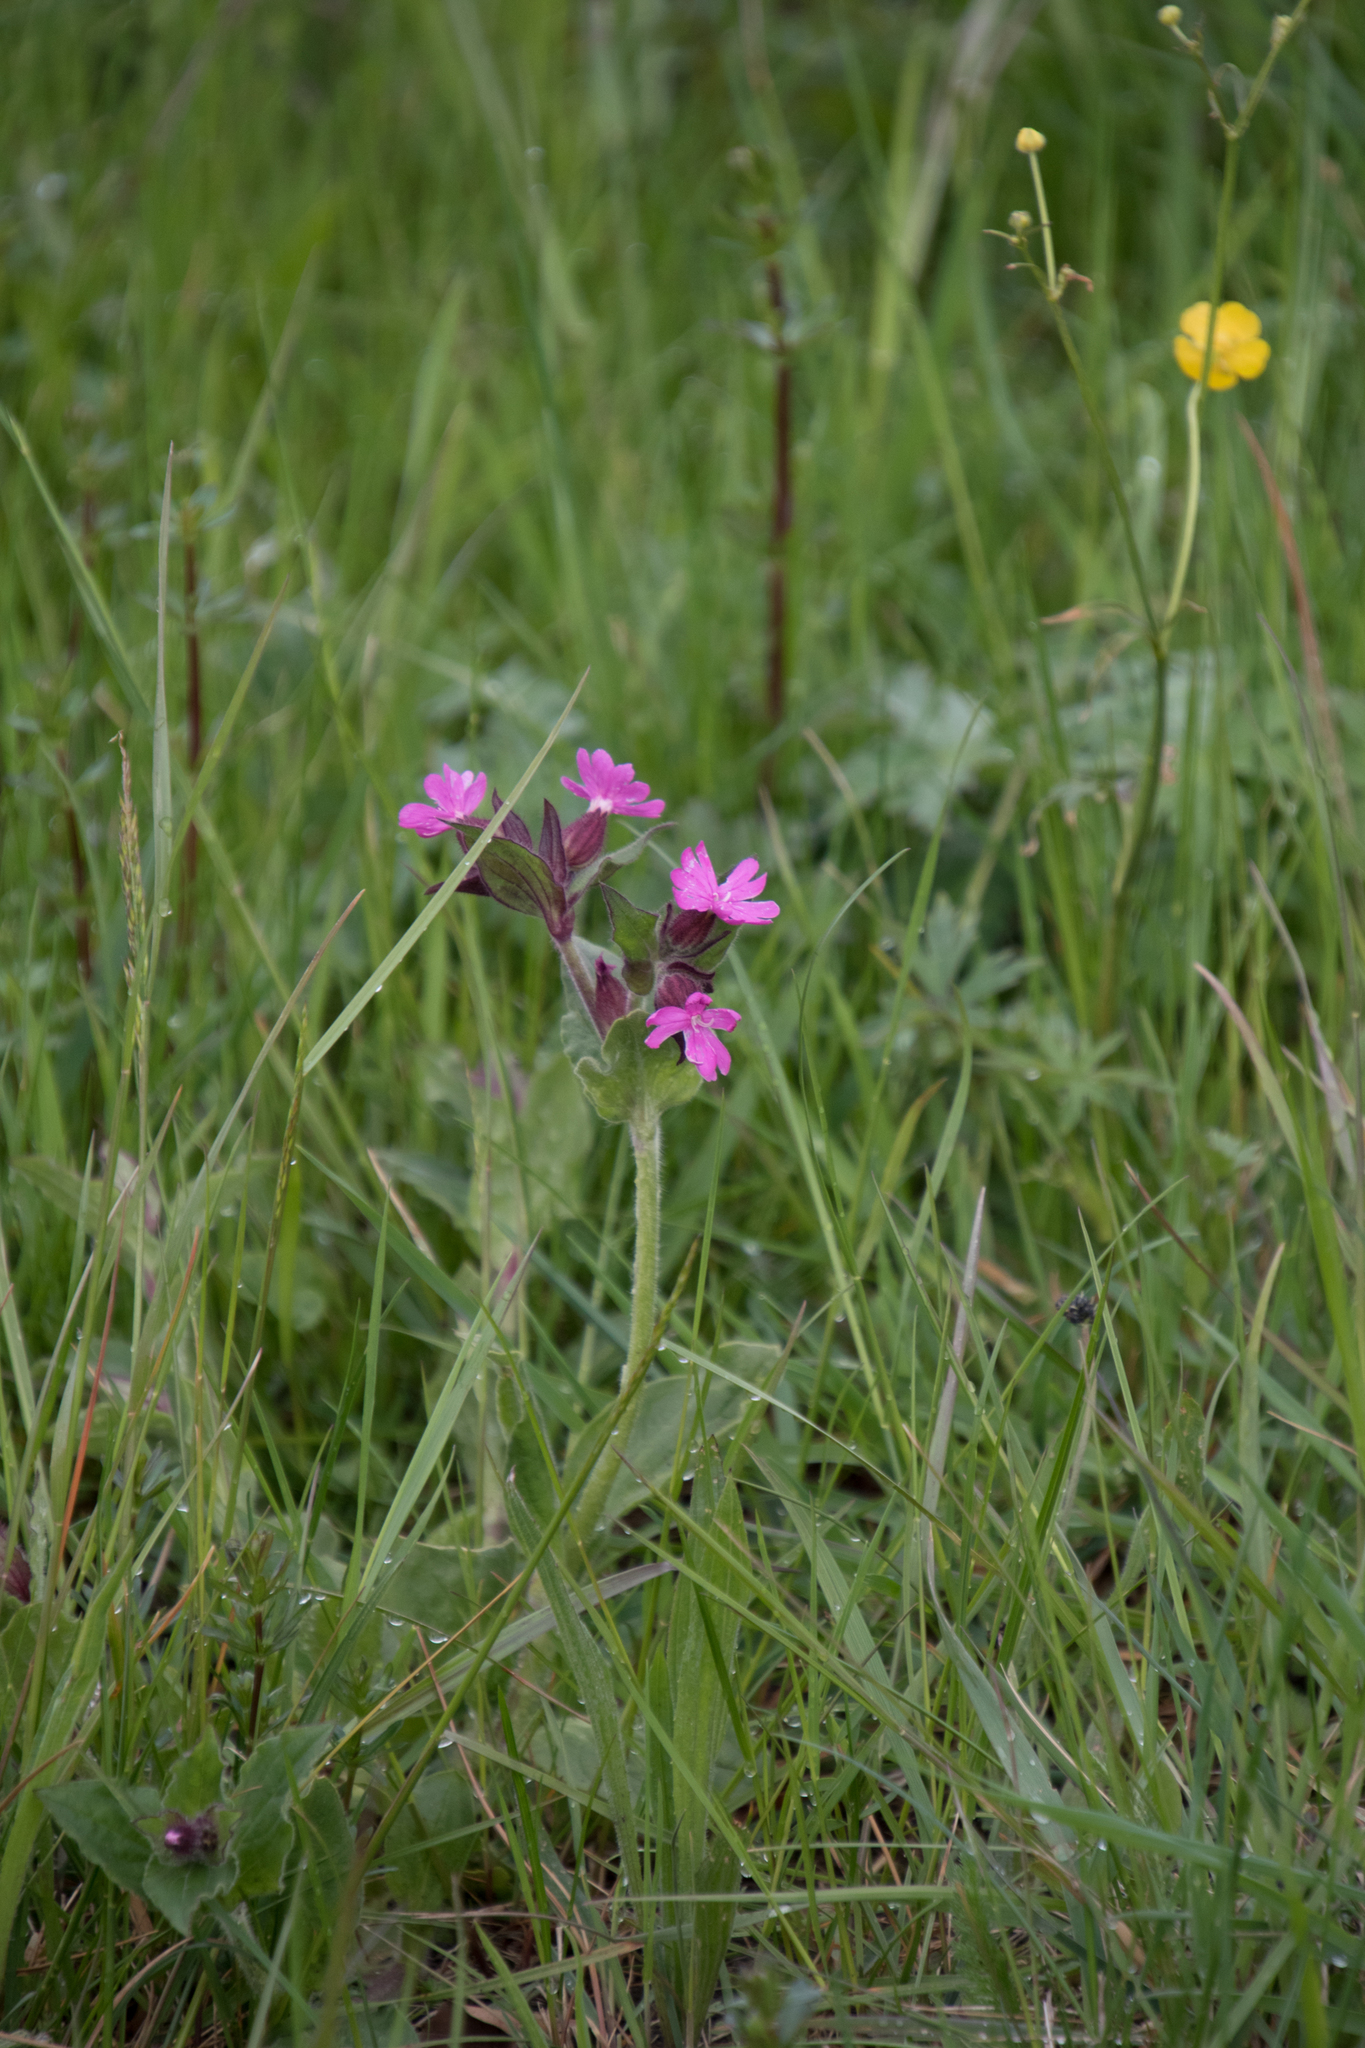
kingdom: Plantae
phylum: Tracheophyta
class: Magnoliopsida
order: Caryophyllales
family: Caryophyllaceae
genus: Silene
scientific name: Silene dioica
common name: Red campion
